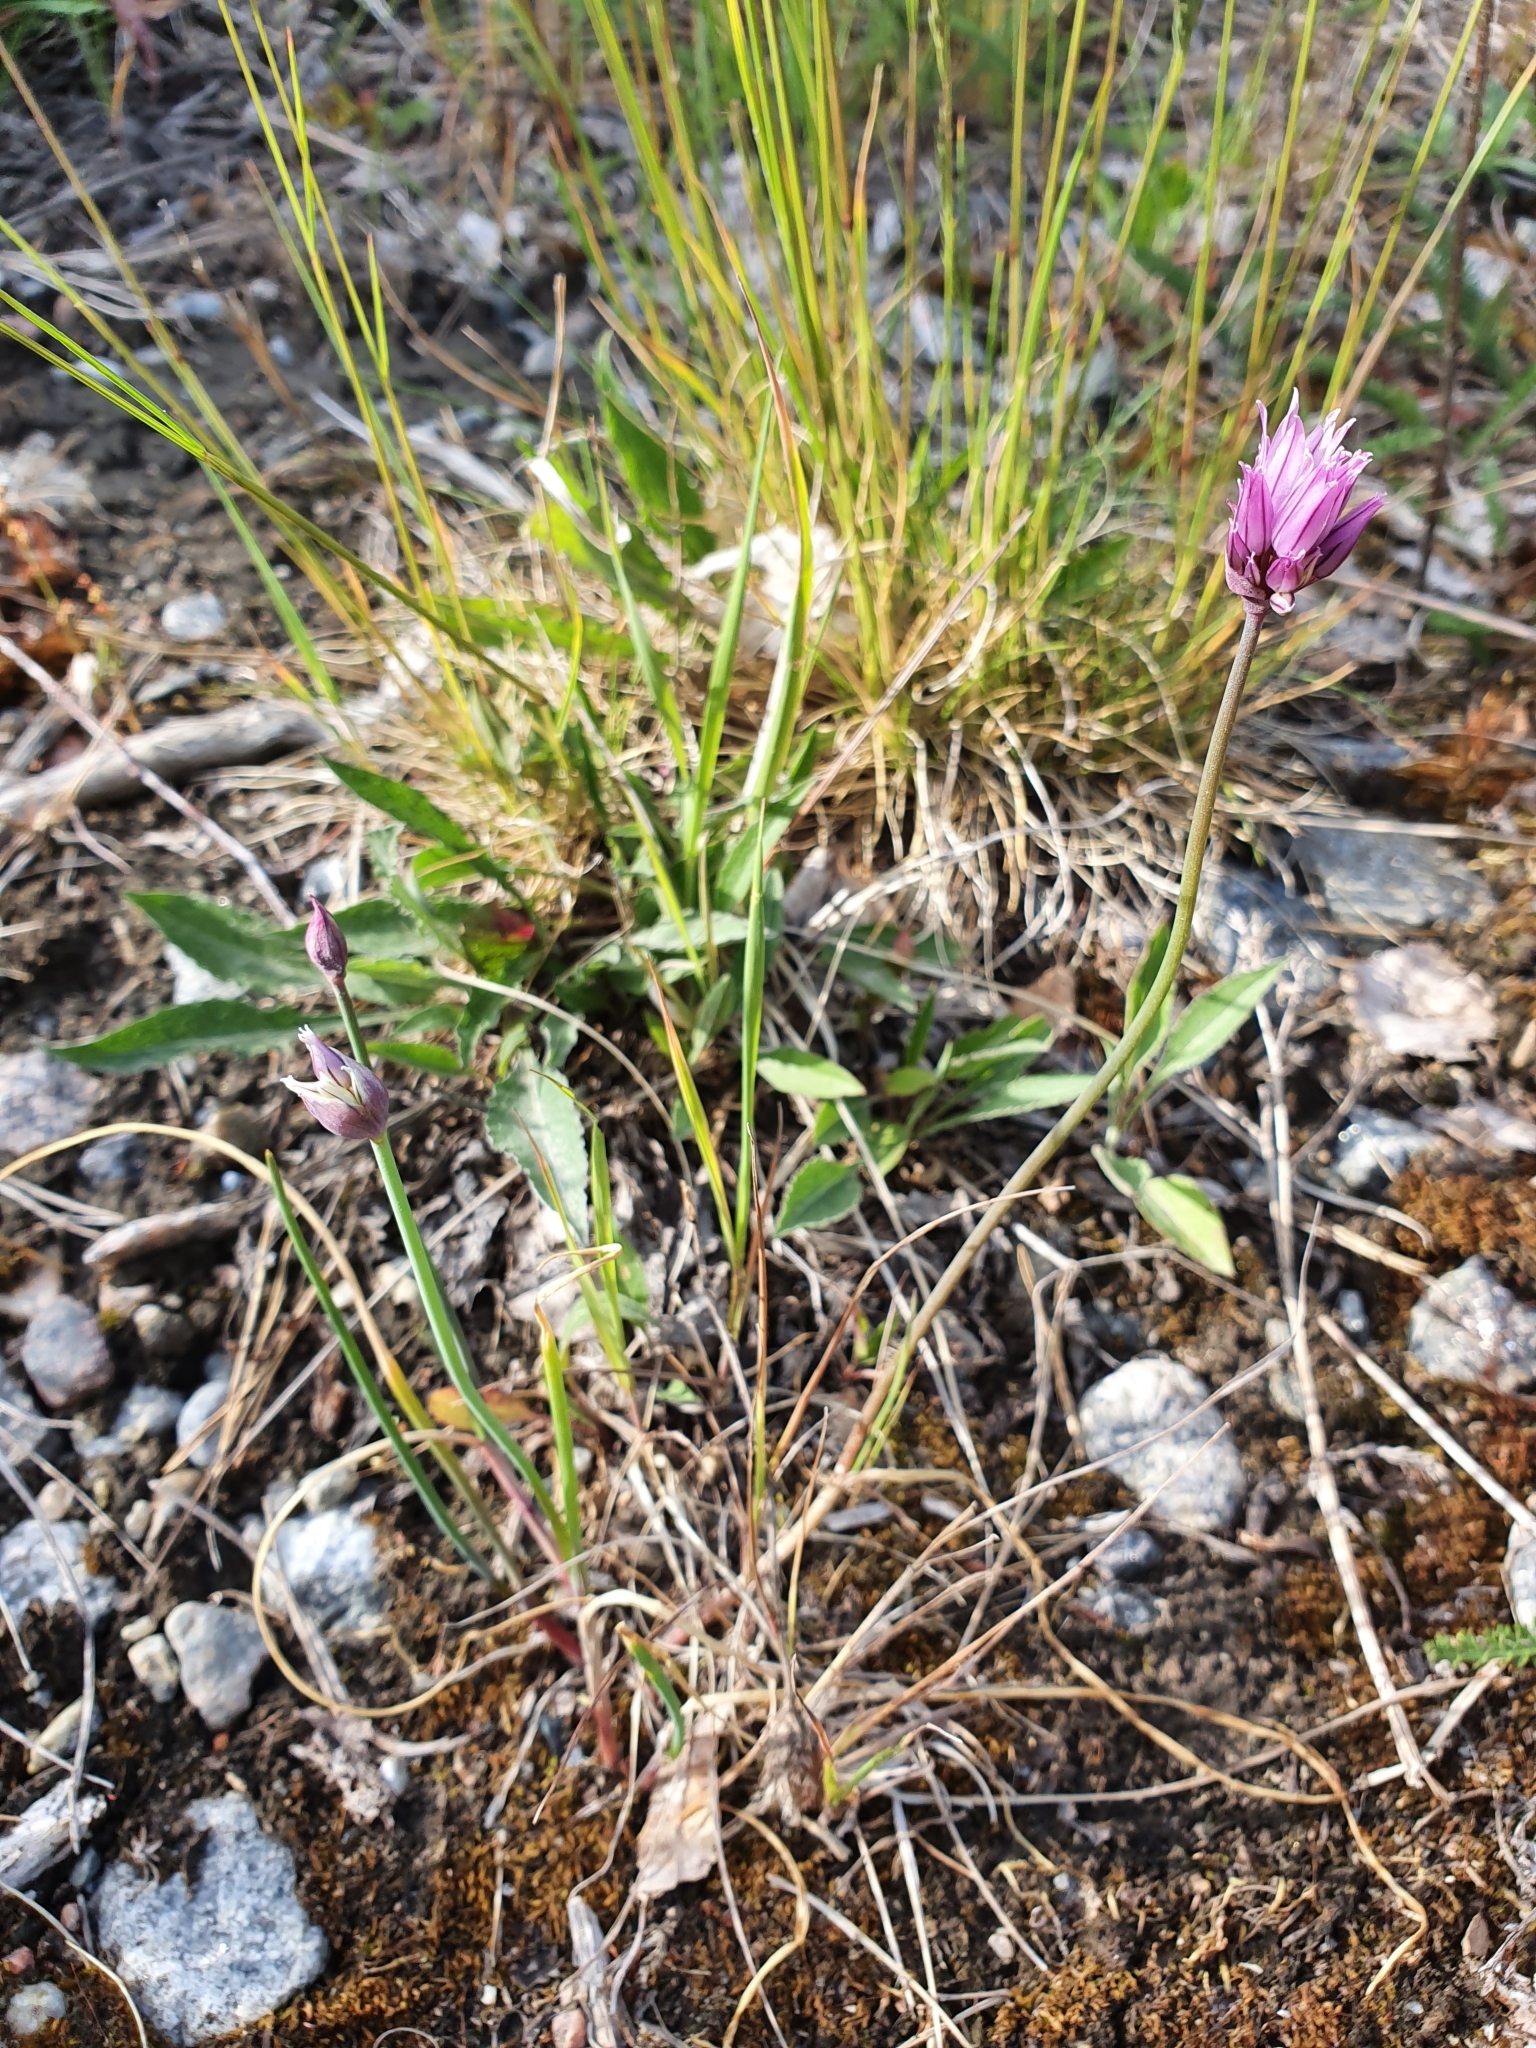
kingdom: Plantae
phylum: Tracheophyta
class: Liliopsida
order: Asparagales
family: Amaryllidaceae
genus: Allium
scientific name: Allium schoenoprasum
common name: Chives
